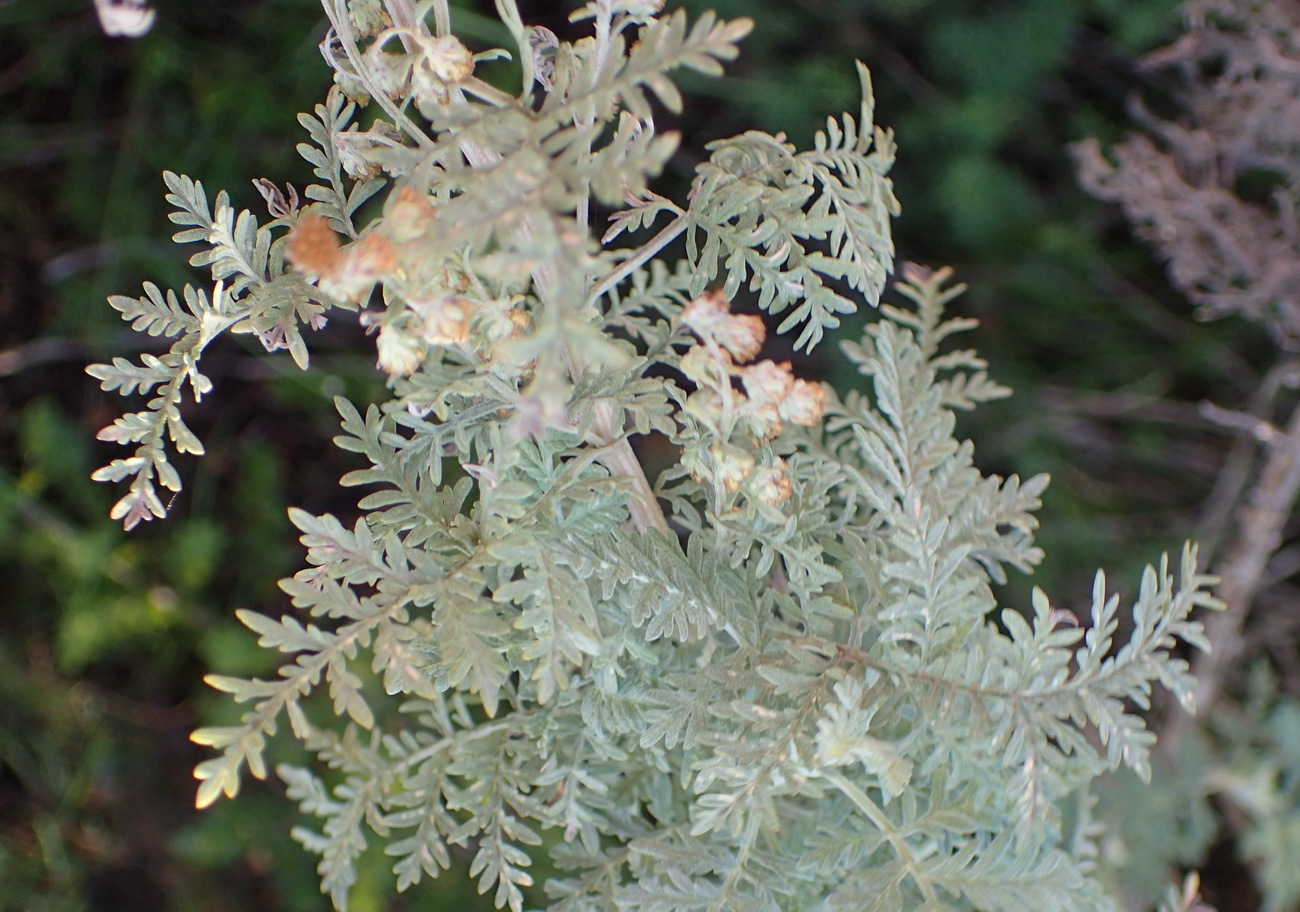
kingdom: Plantae
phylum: Tracheophyta
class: Magnoliopsida
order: Asterales
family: Asteraceae
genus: Artemisia
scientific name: Artemisia afra
